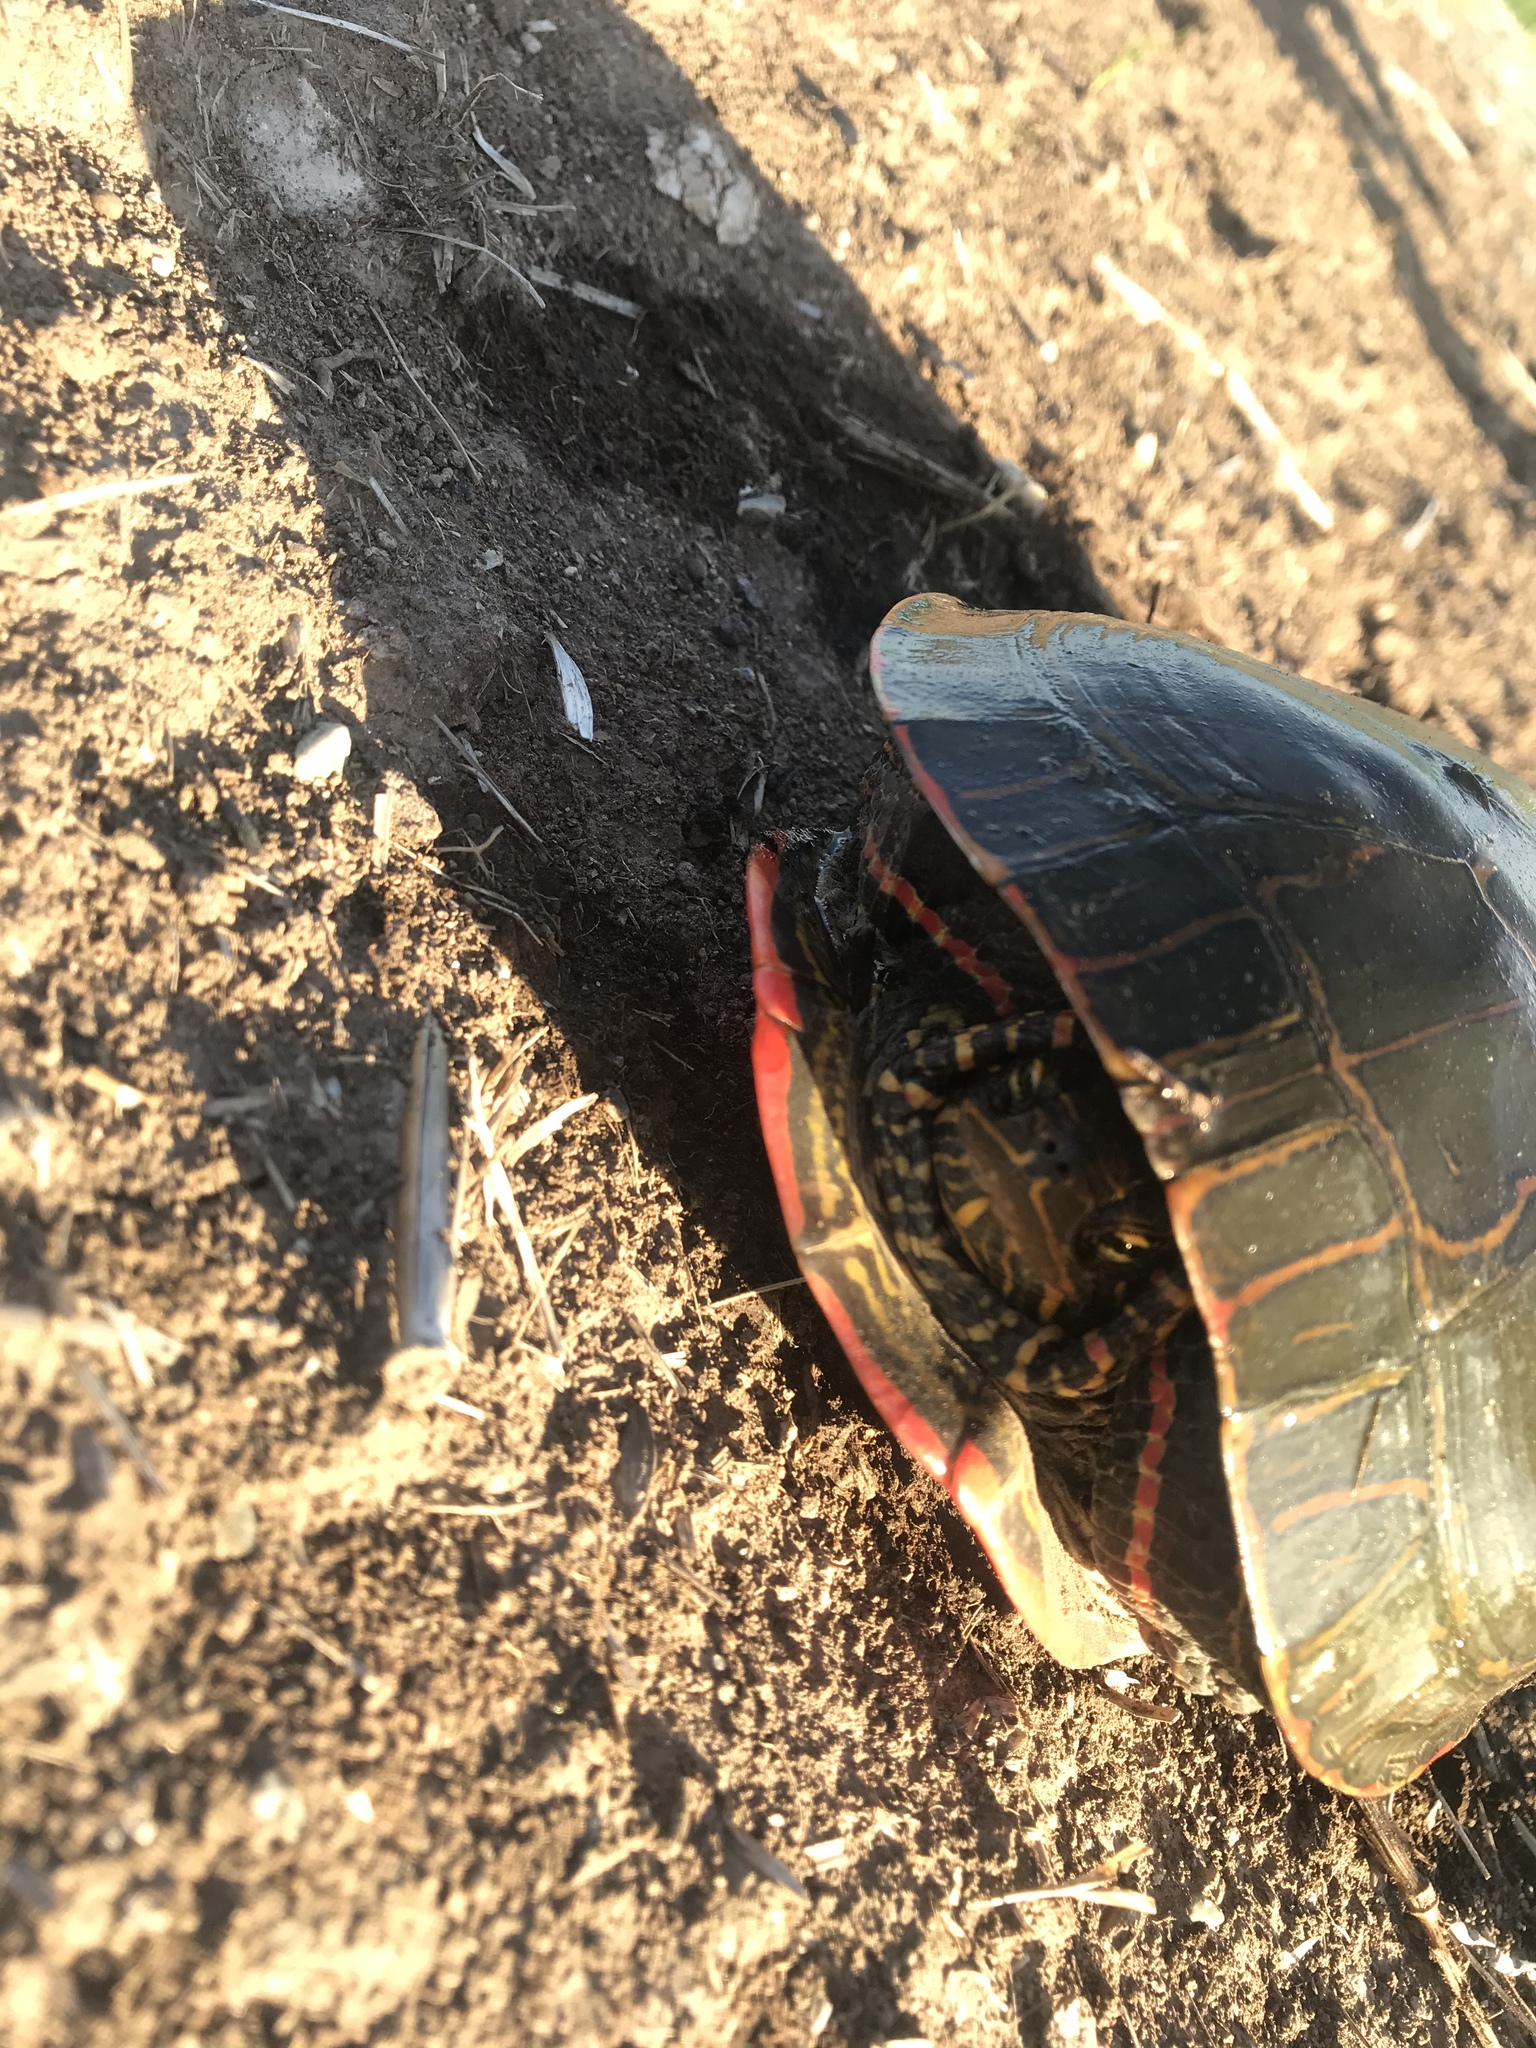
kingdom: Animalia
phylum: Chordata
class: Testudines
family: Emydidae
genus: Chrysemys
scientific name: Chrysemys picta
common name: Painted turtle
